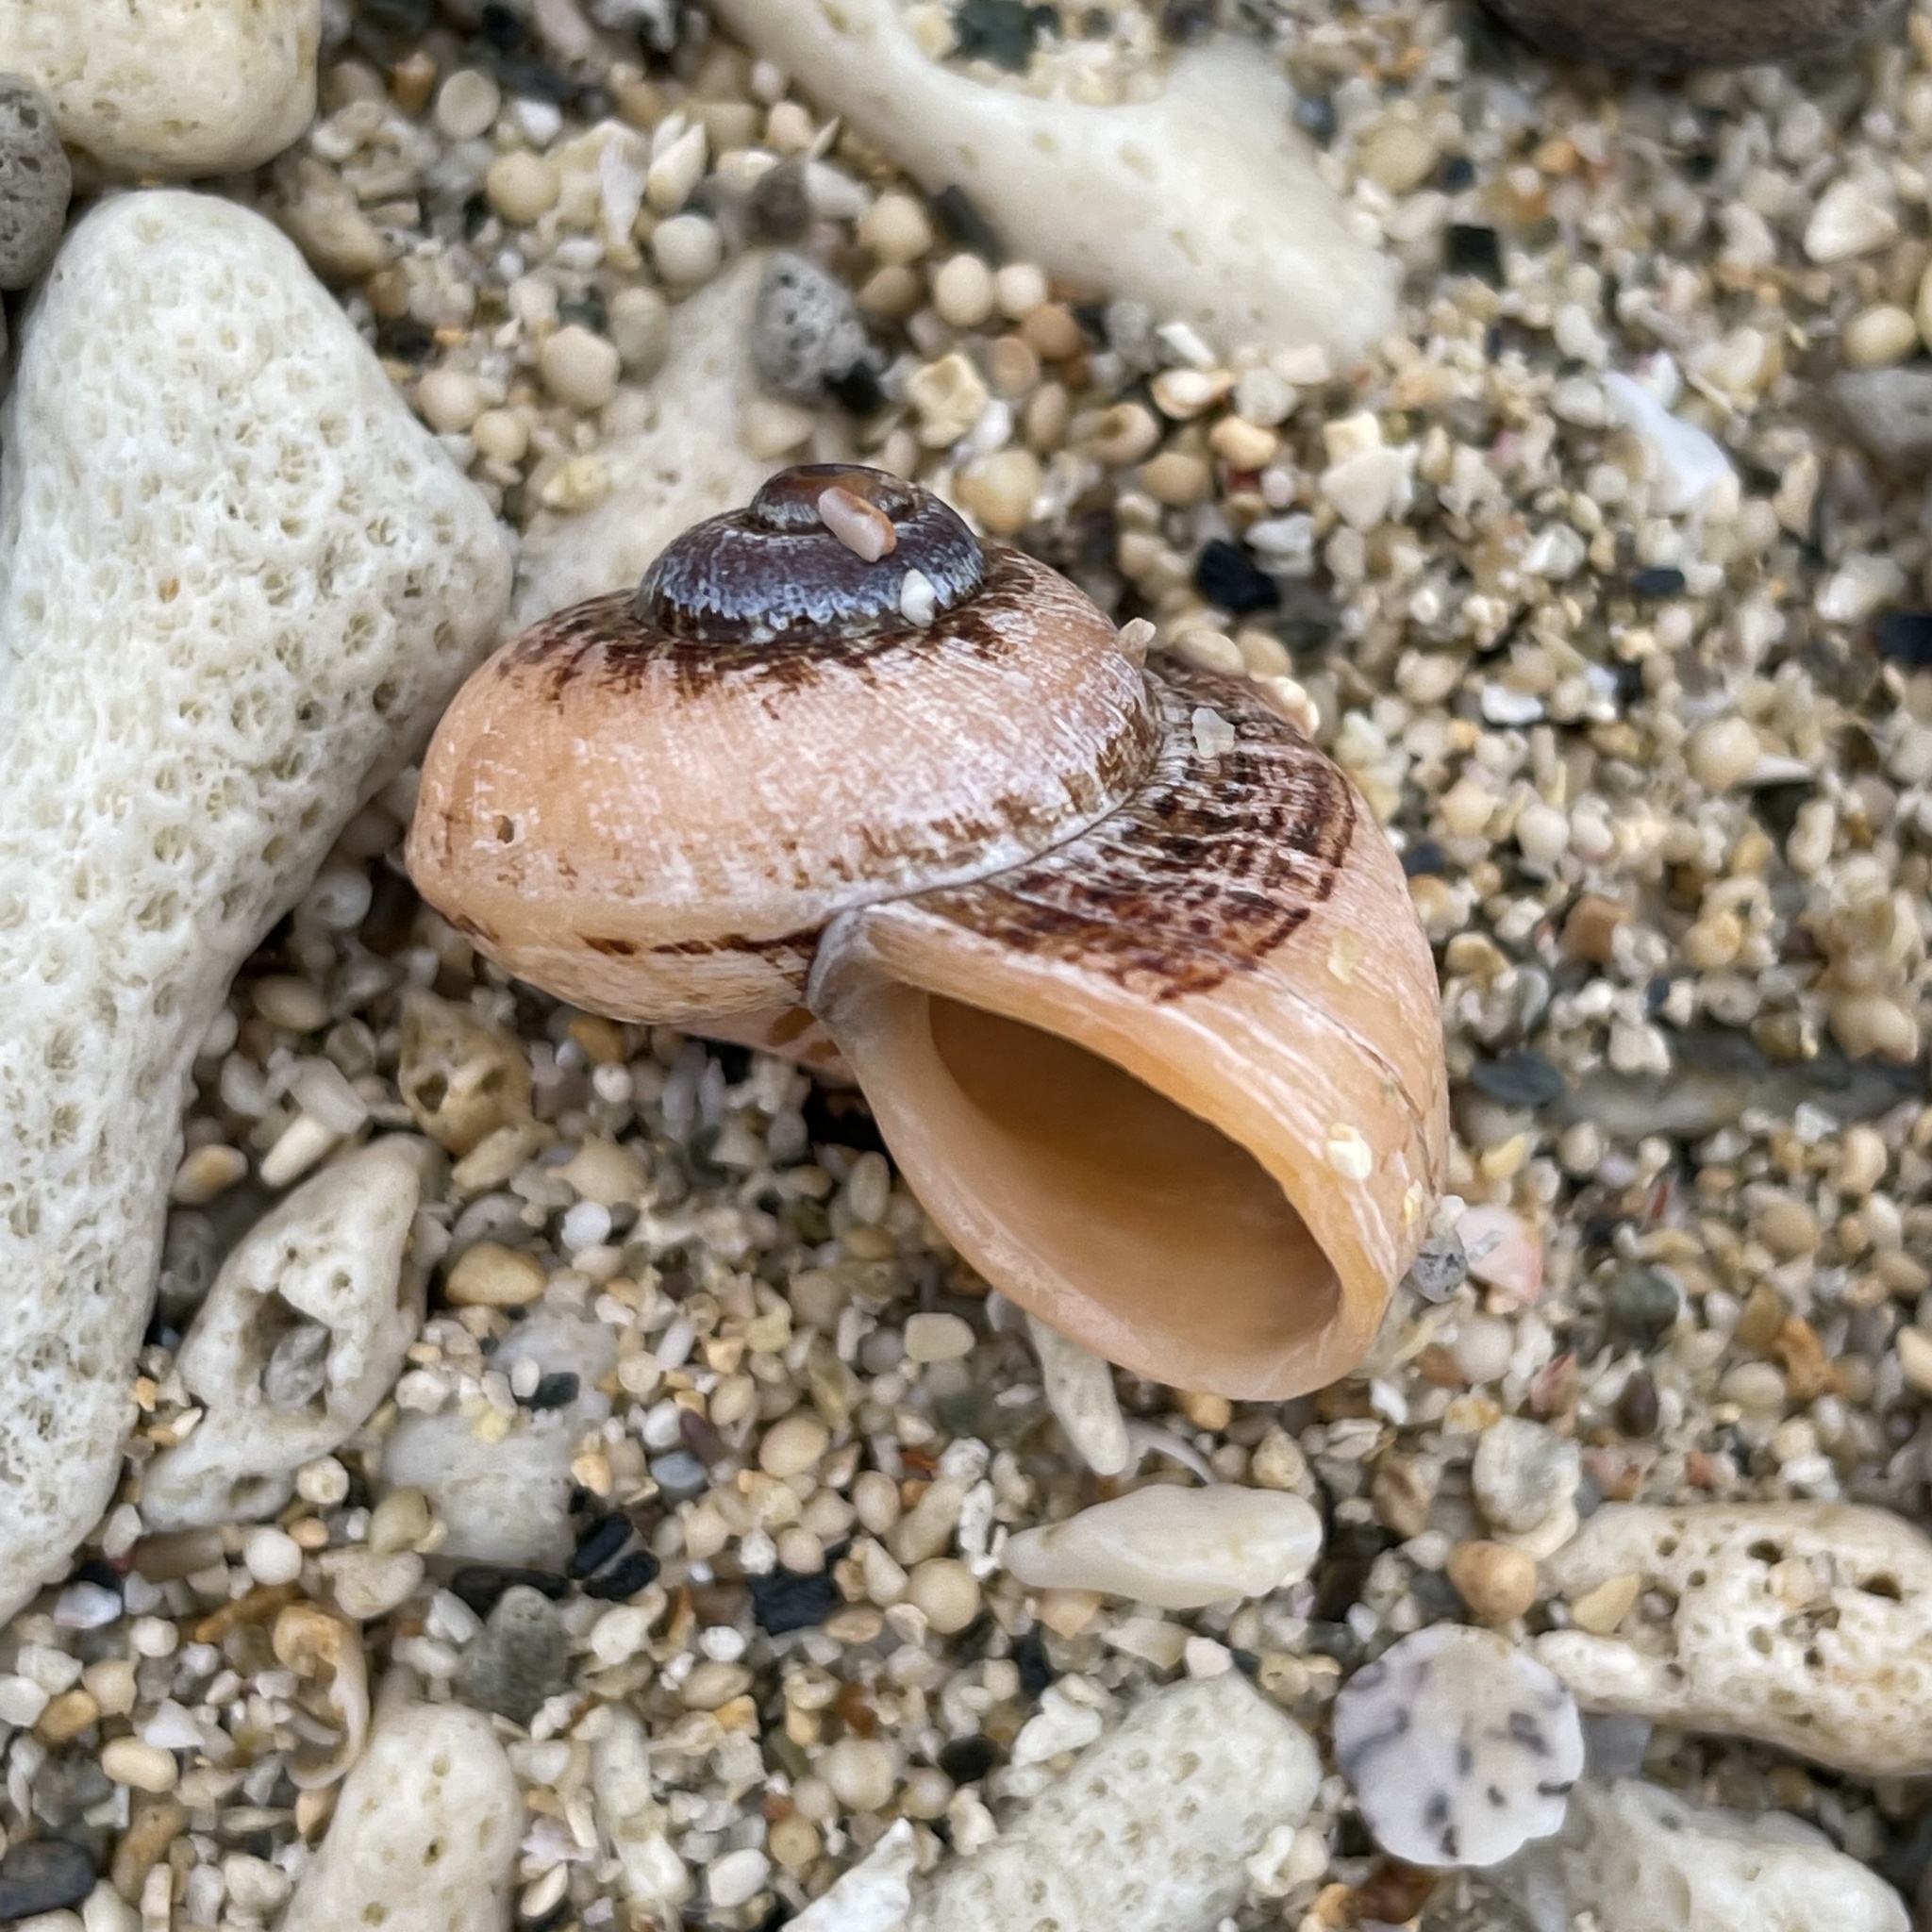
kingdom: Animalia
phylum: Mollusca
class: Gastropoda
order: Architaenioglossa
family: Cyclophoridae
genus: Cyclophorus
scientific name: Cyclophorus turgidus
